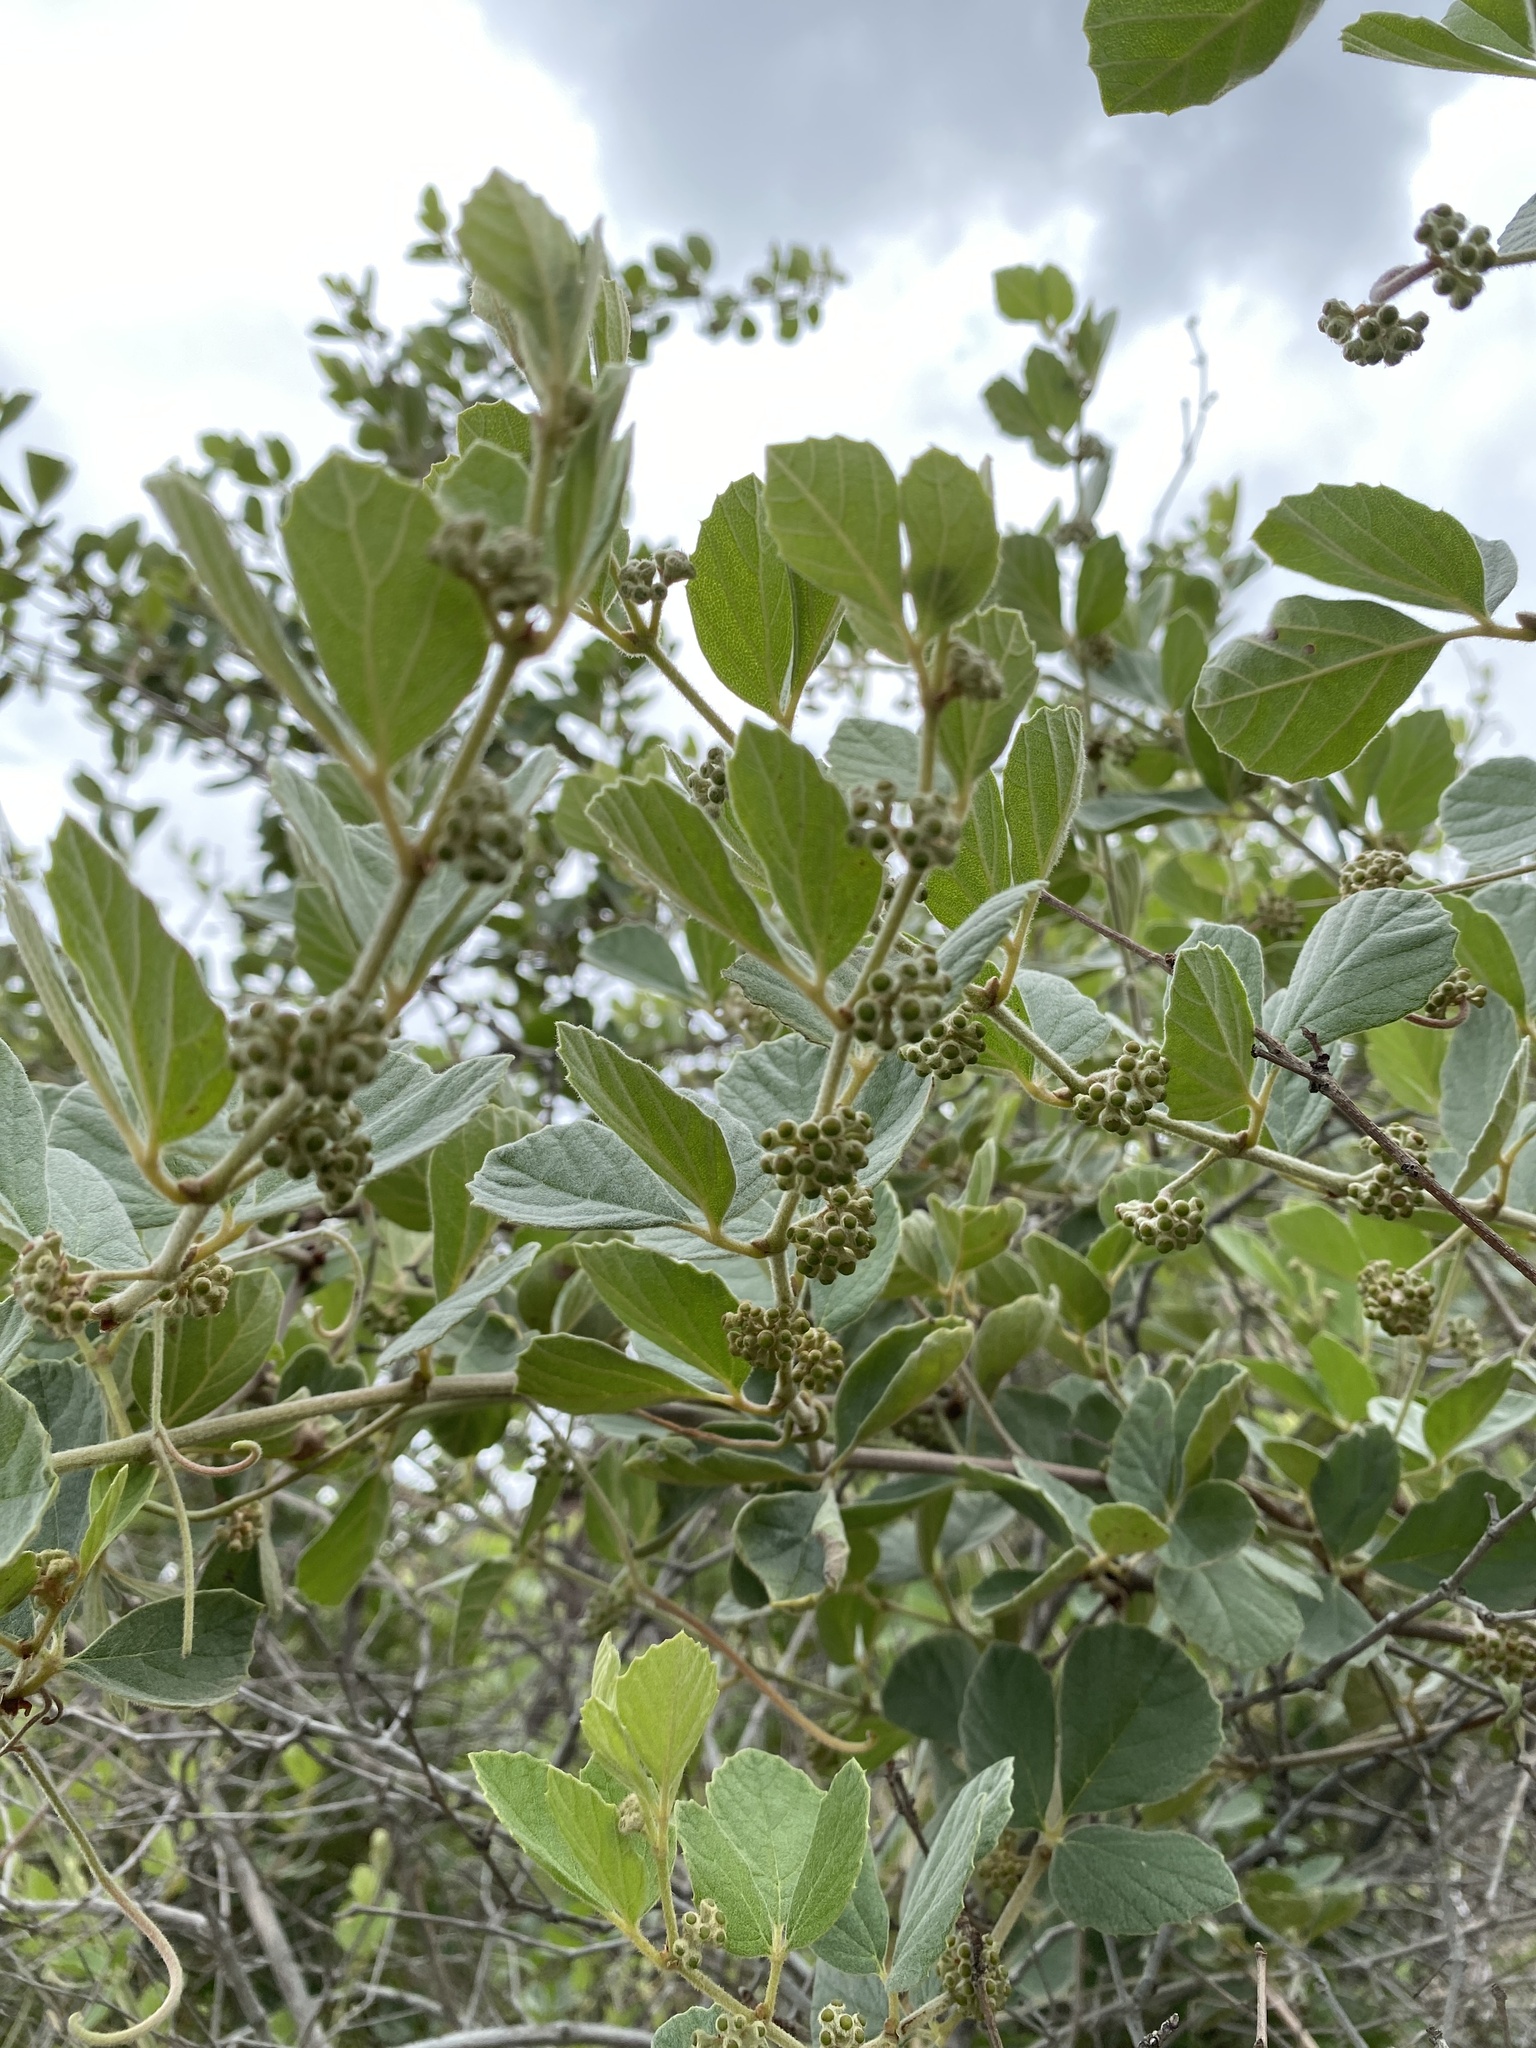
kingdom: Plantae
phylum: Tracheophyta
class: Magnoliopsida
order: Vitales
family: Vitaceae
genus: Rhoicissus
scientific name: Rhoicissus tridentata
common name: Common forest grape
